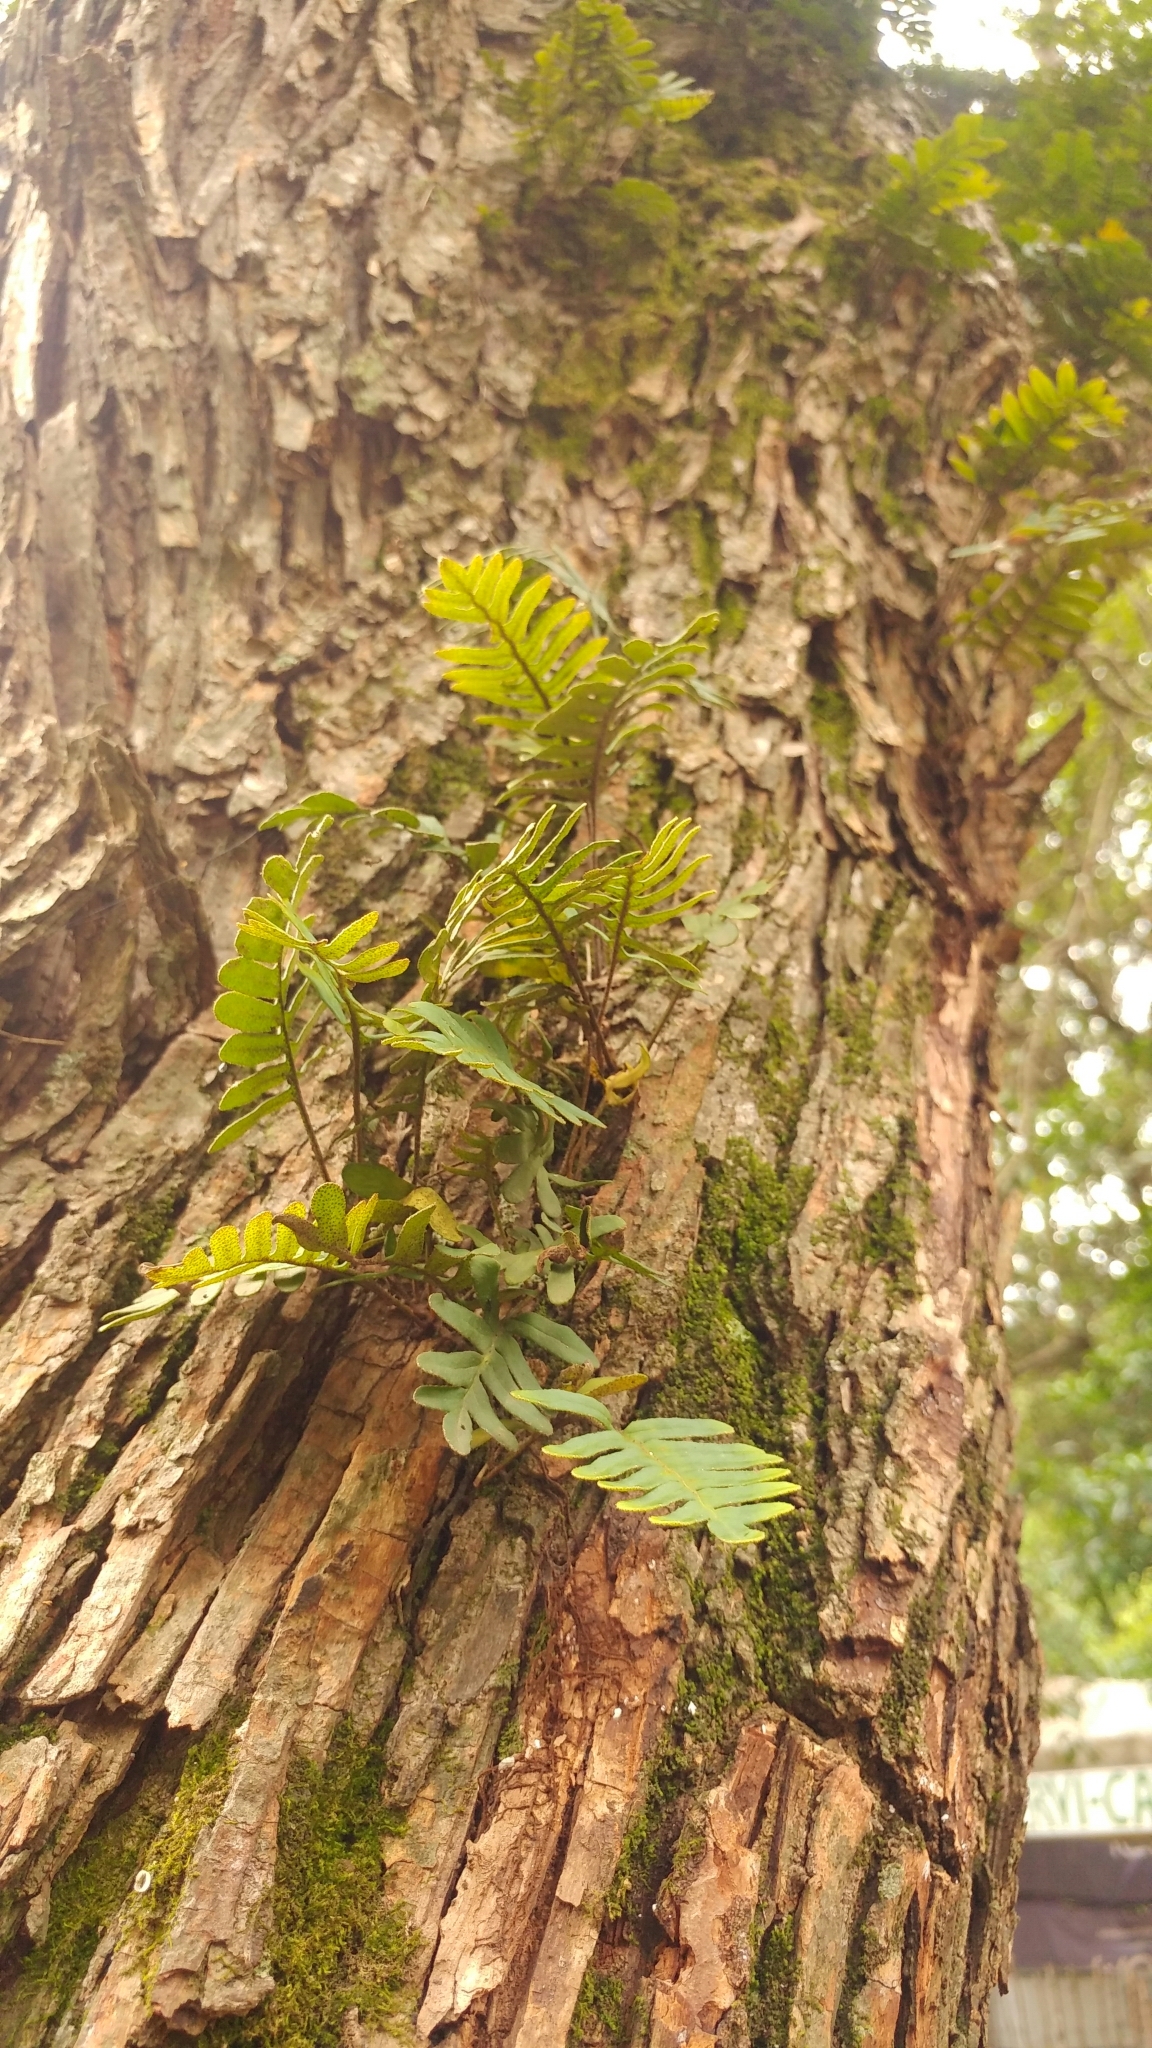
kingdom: Plantae
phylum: Tracheophyta
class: Polypodiopsida
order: Polypodiales
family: Polypodiaceae
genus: Pleopeltis
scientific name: Pleopeltis michauxiana
